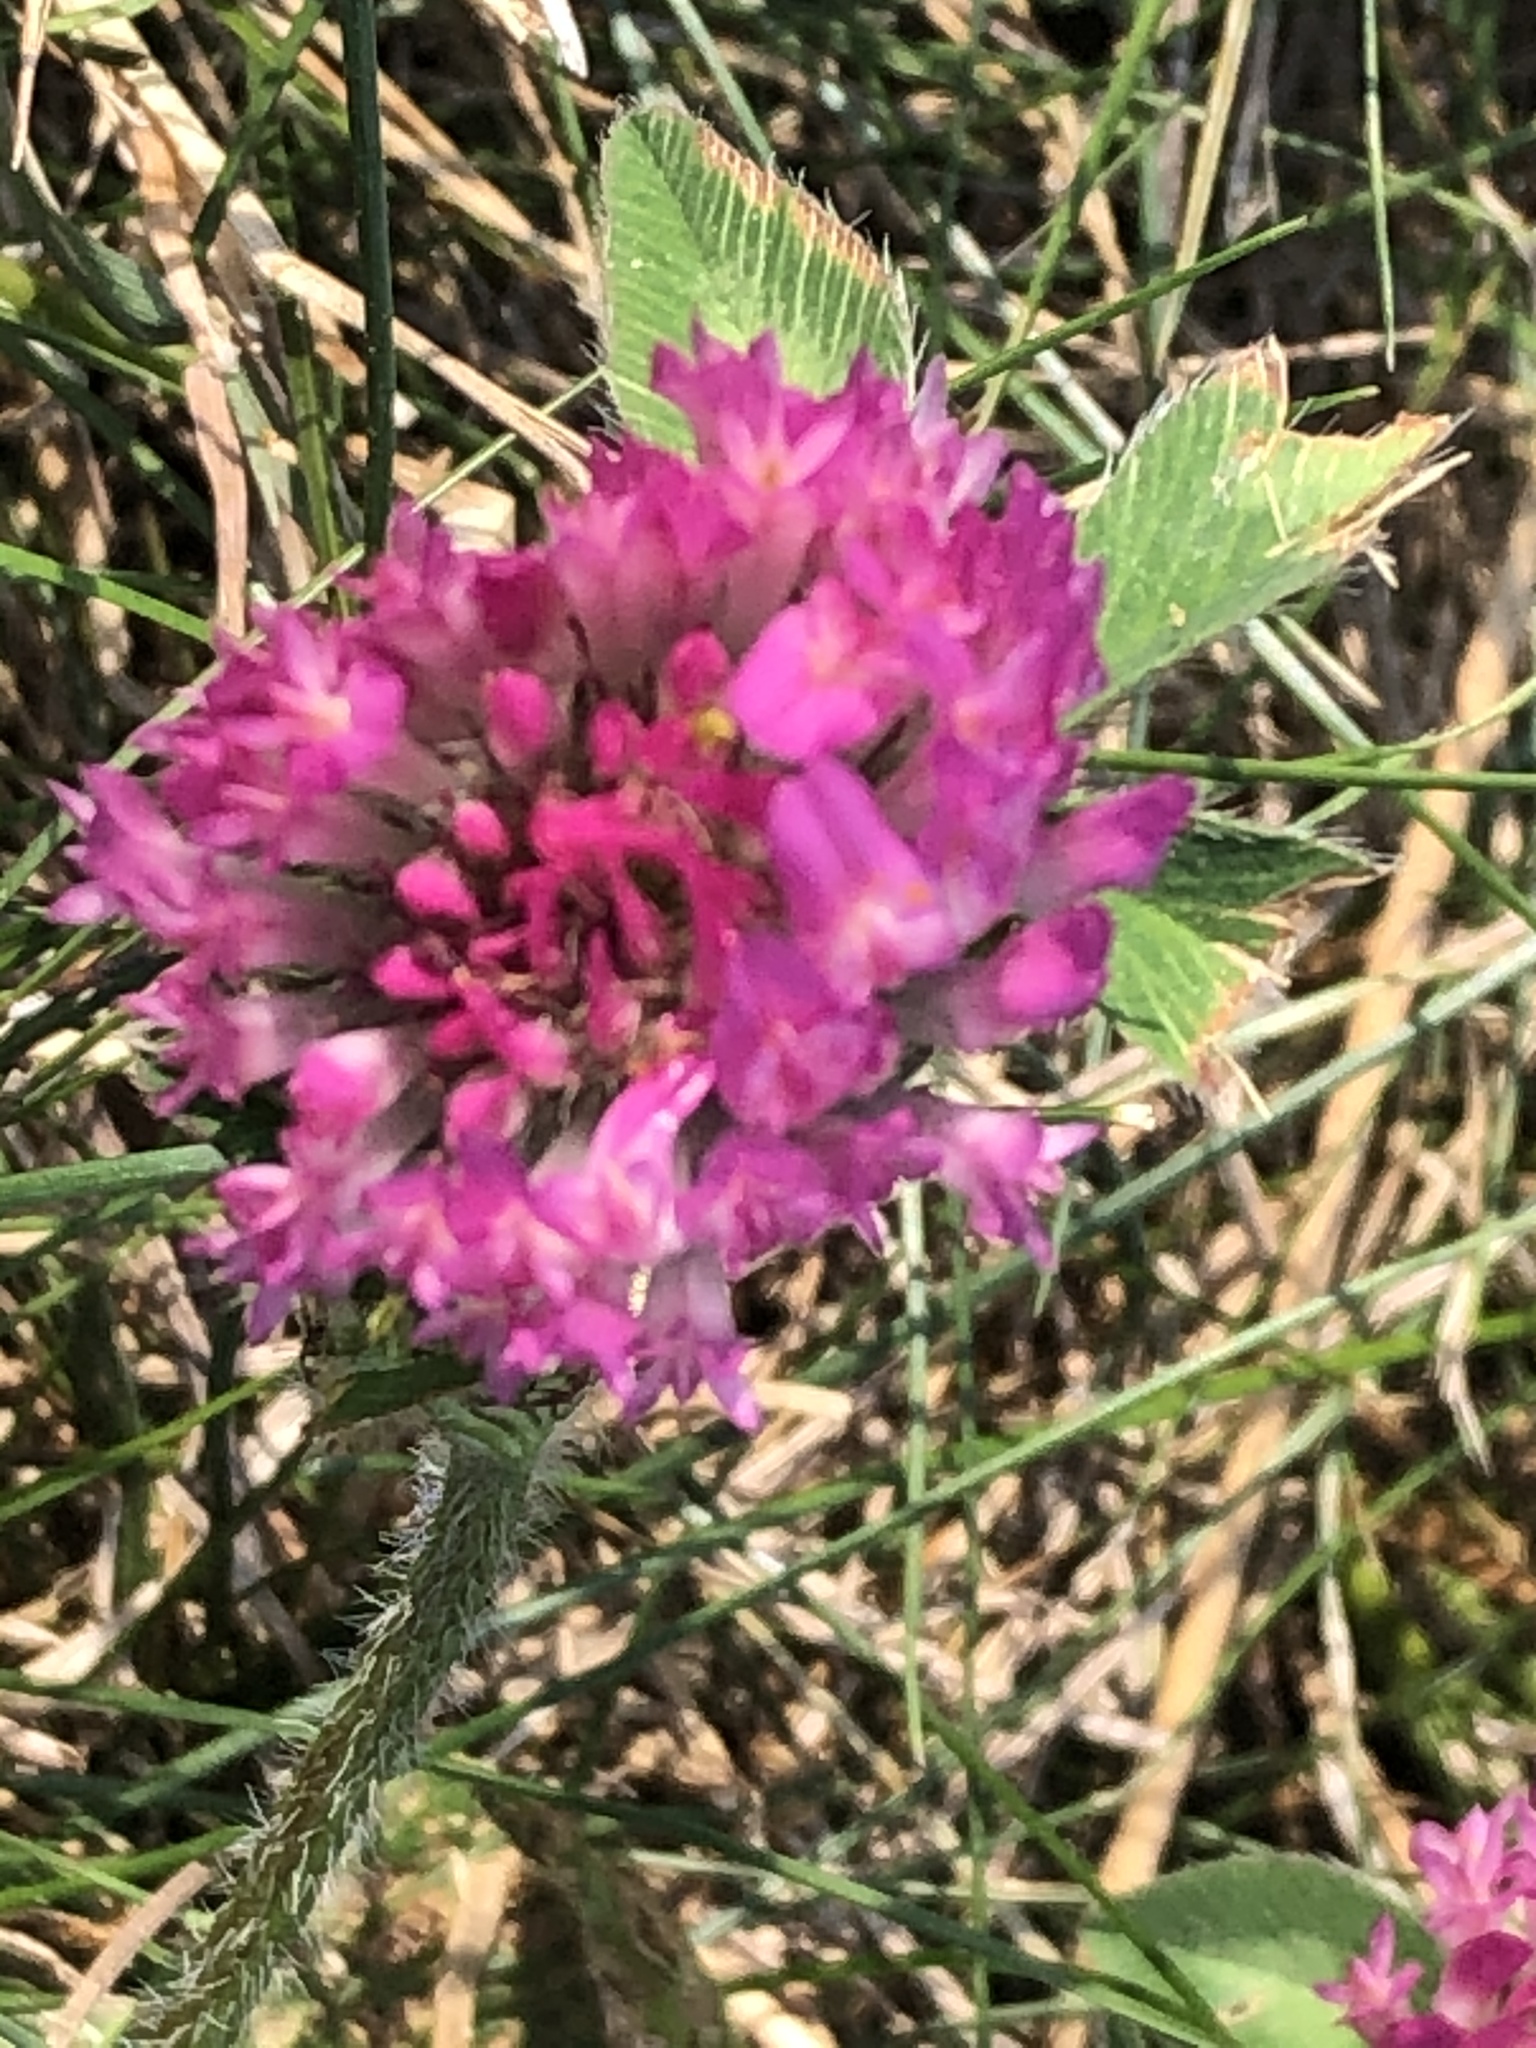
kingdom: Plantae
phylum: Tracheophyta
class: Magnoliopsida
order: Fabales
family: Fabaceae
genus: Trifolium
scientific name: Trifolium pratense
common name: Red clover
